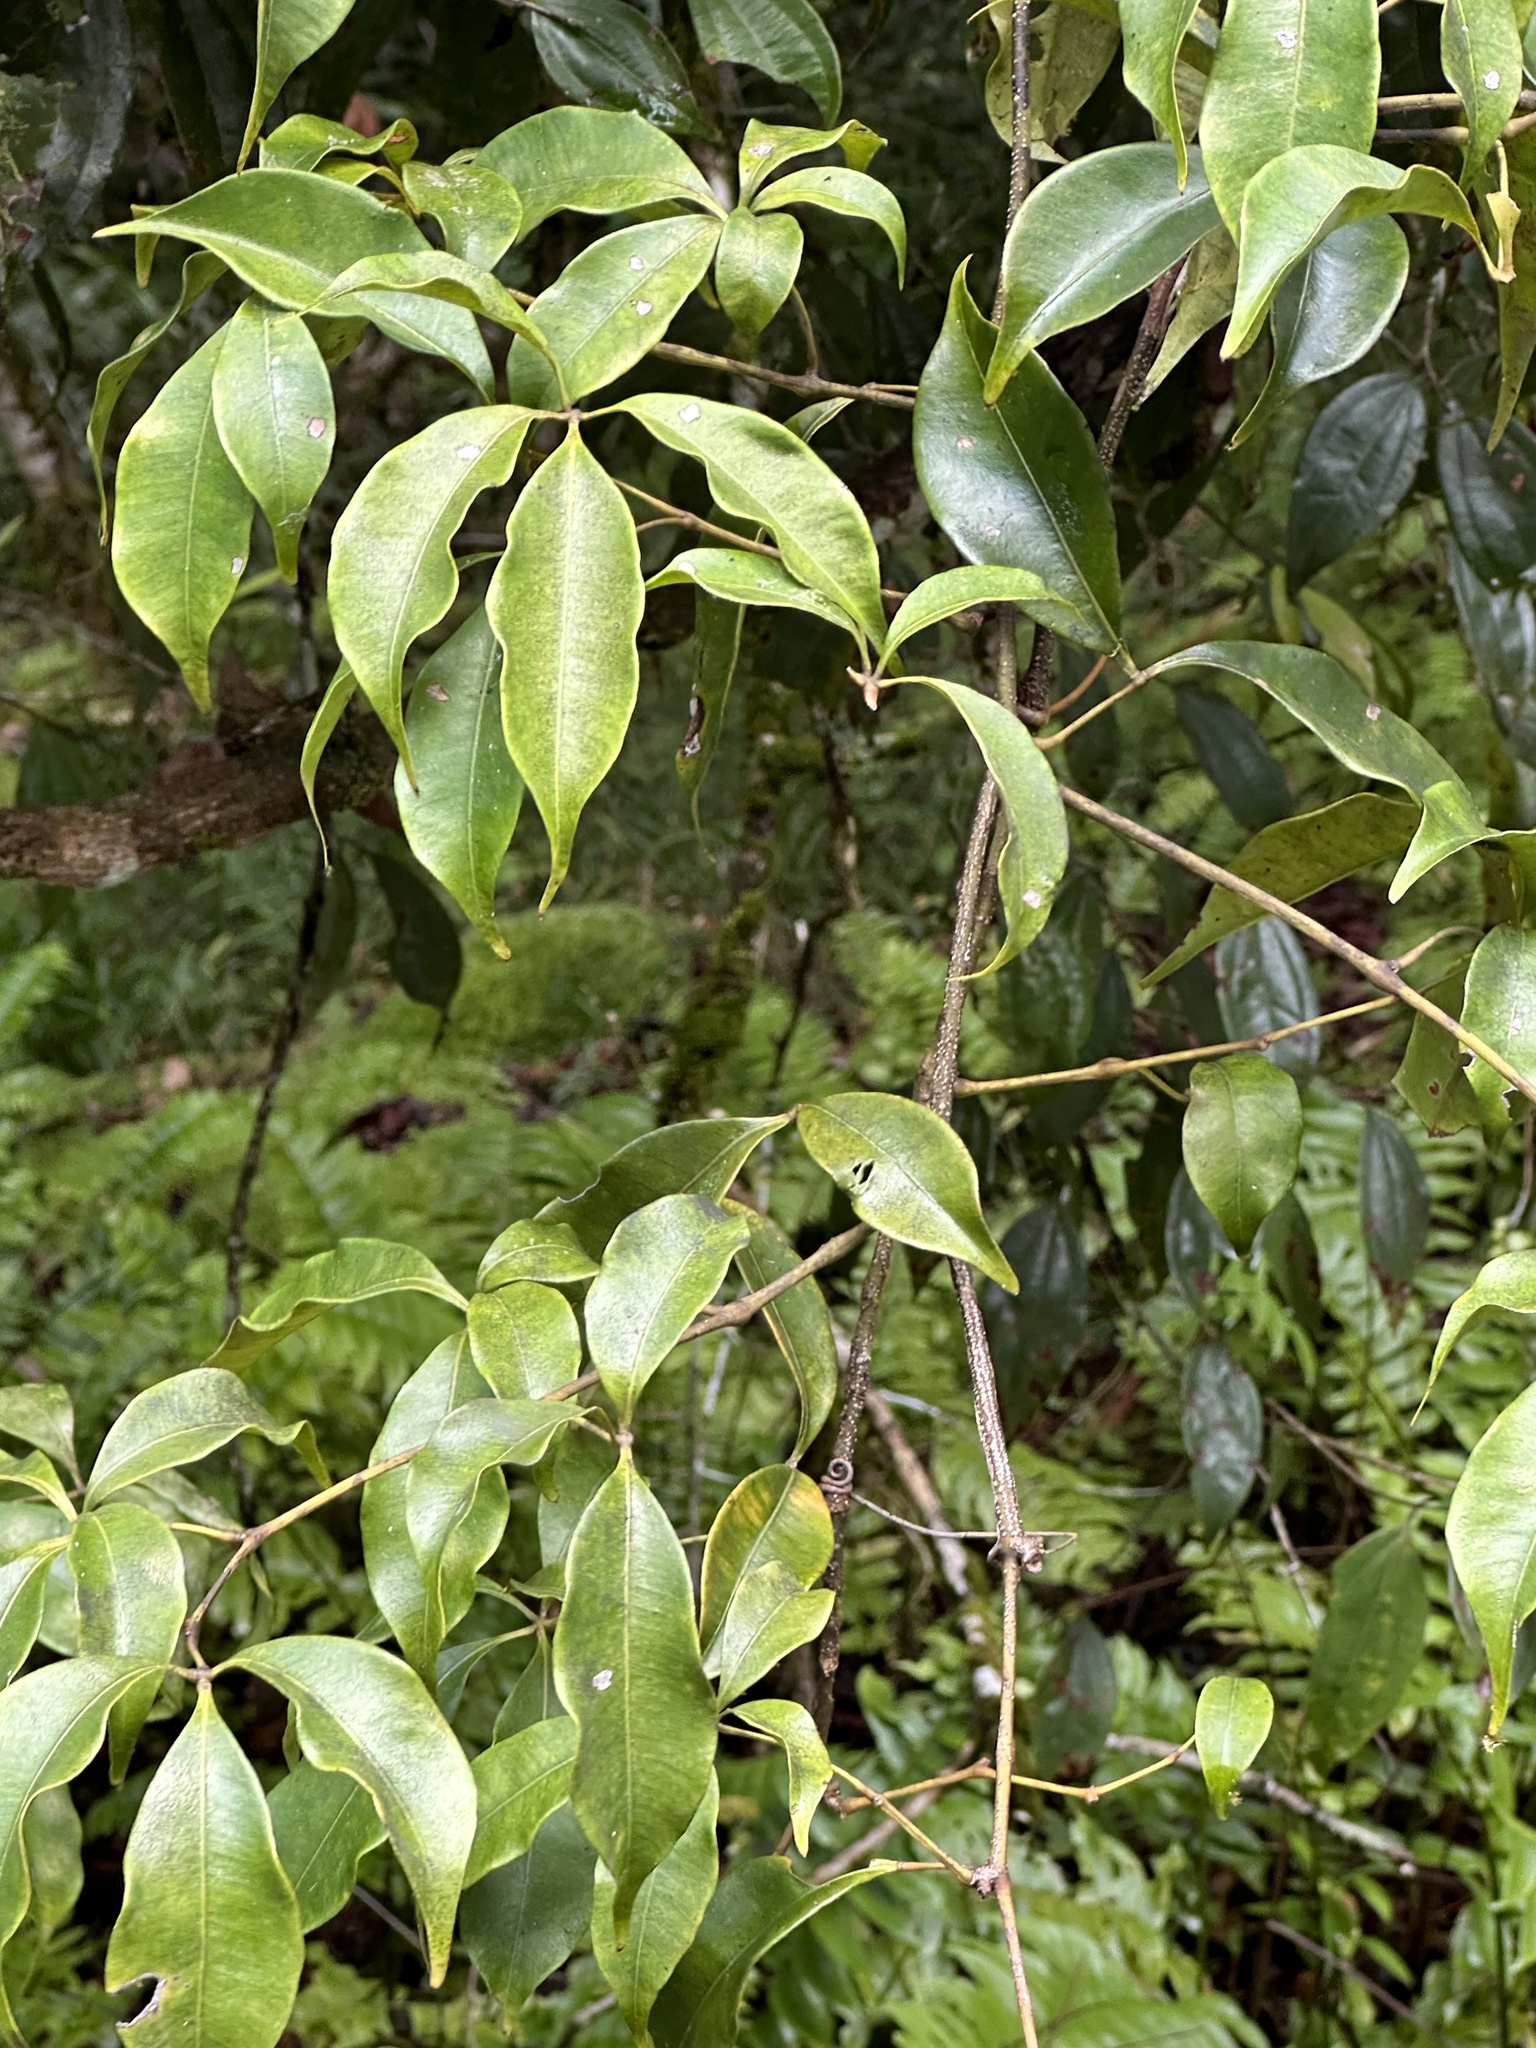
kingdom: Plantae
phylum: Tracheophyta
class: Magnoliopsida
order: Vitales
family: Vitaceae
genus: Nothocissus
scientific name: Nothocissus penninervis
